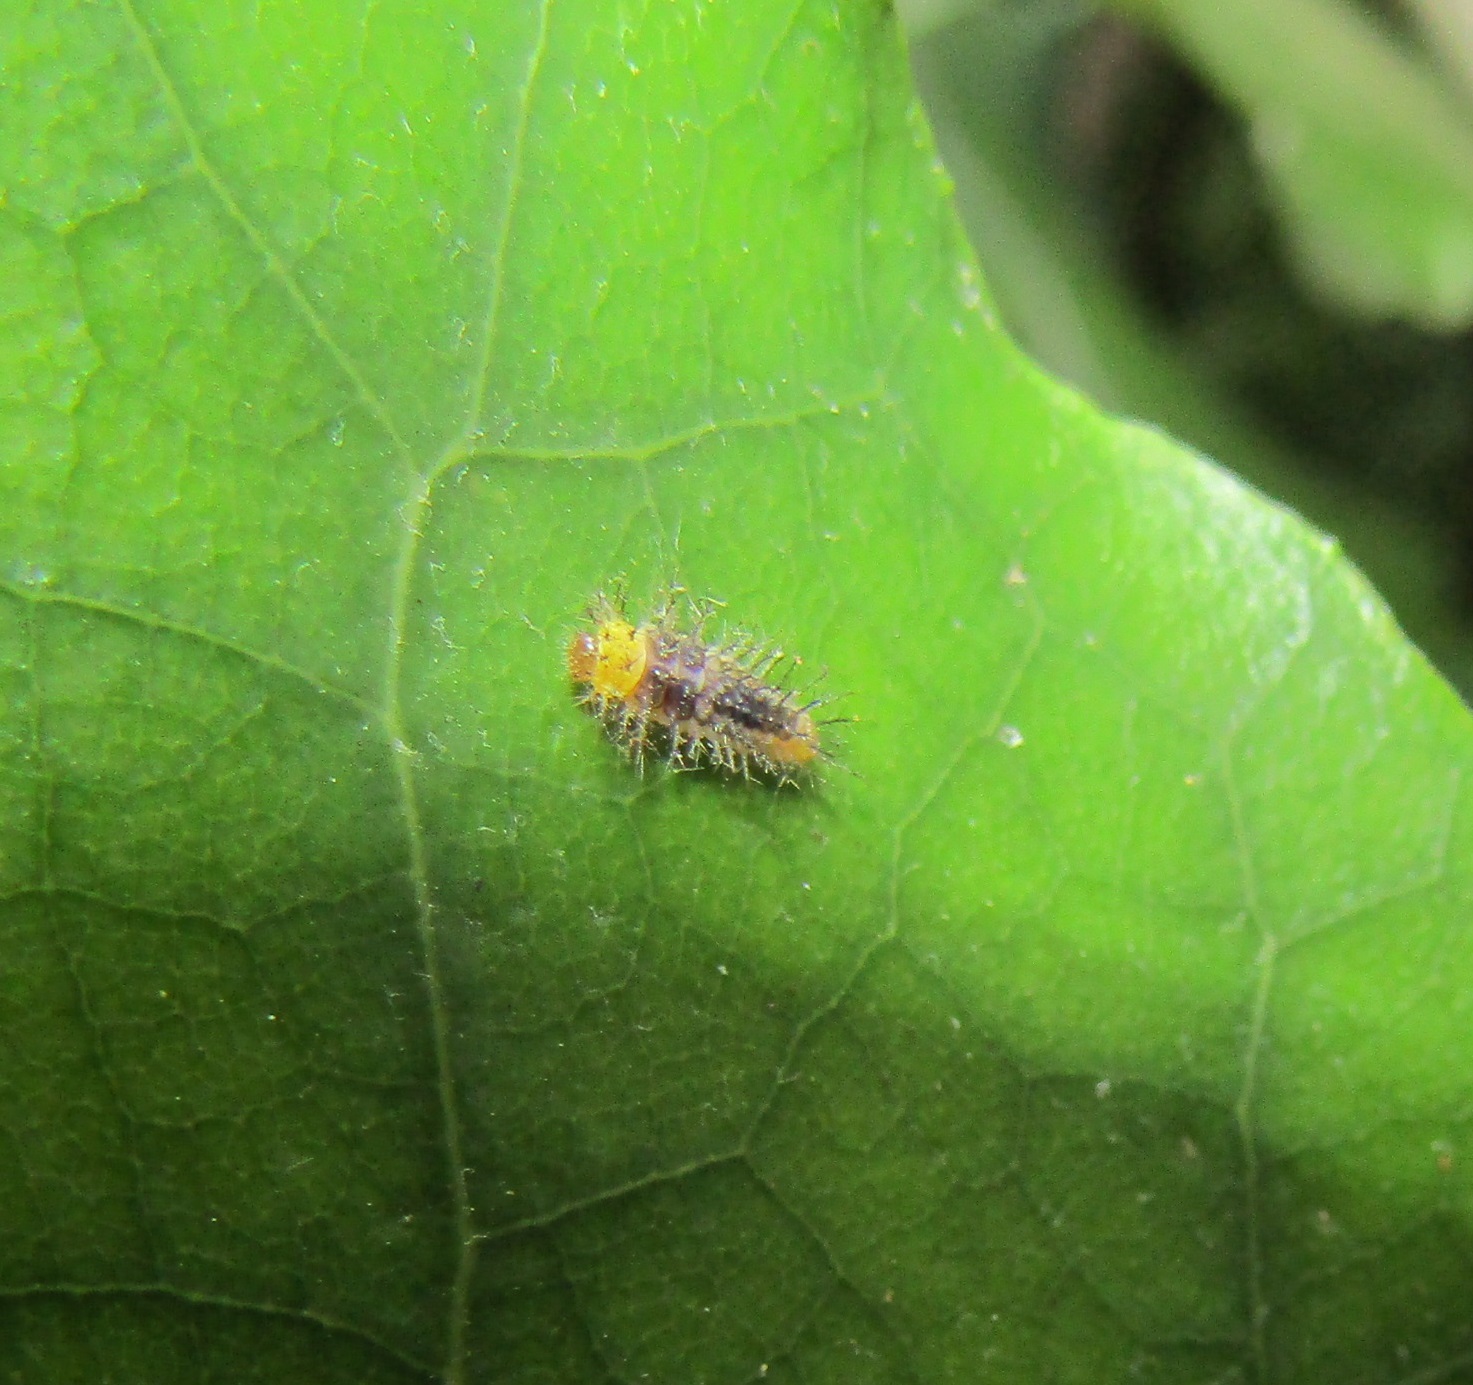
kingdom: Animalia
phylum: Arthropoda
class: Insecta
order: Coleoptera
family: Coccinellidae
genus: Halmus
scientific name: Halmus chalybeus
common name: Steel blue ladybird beetle
